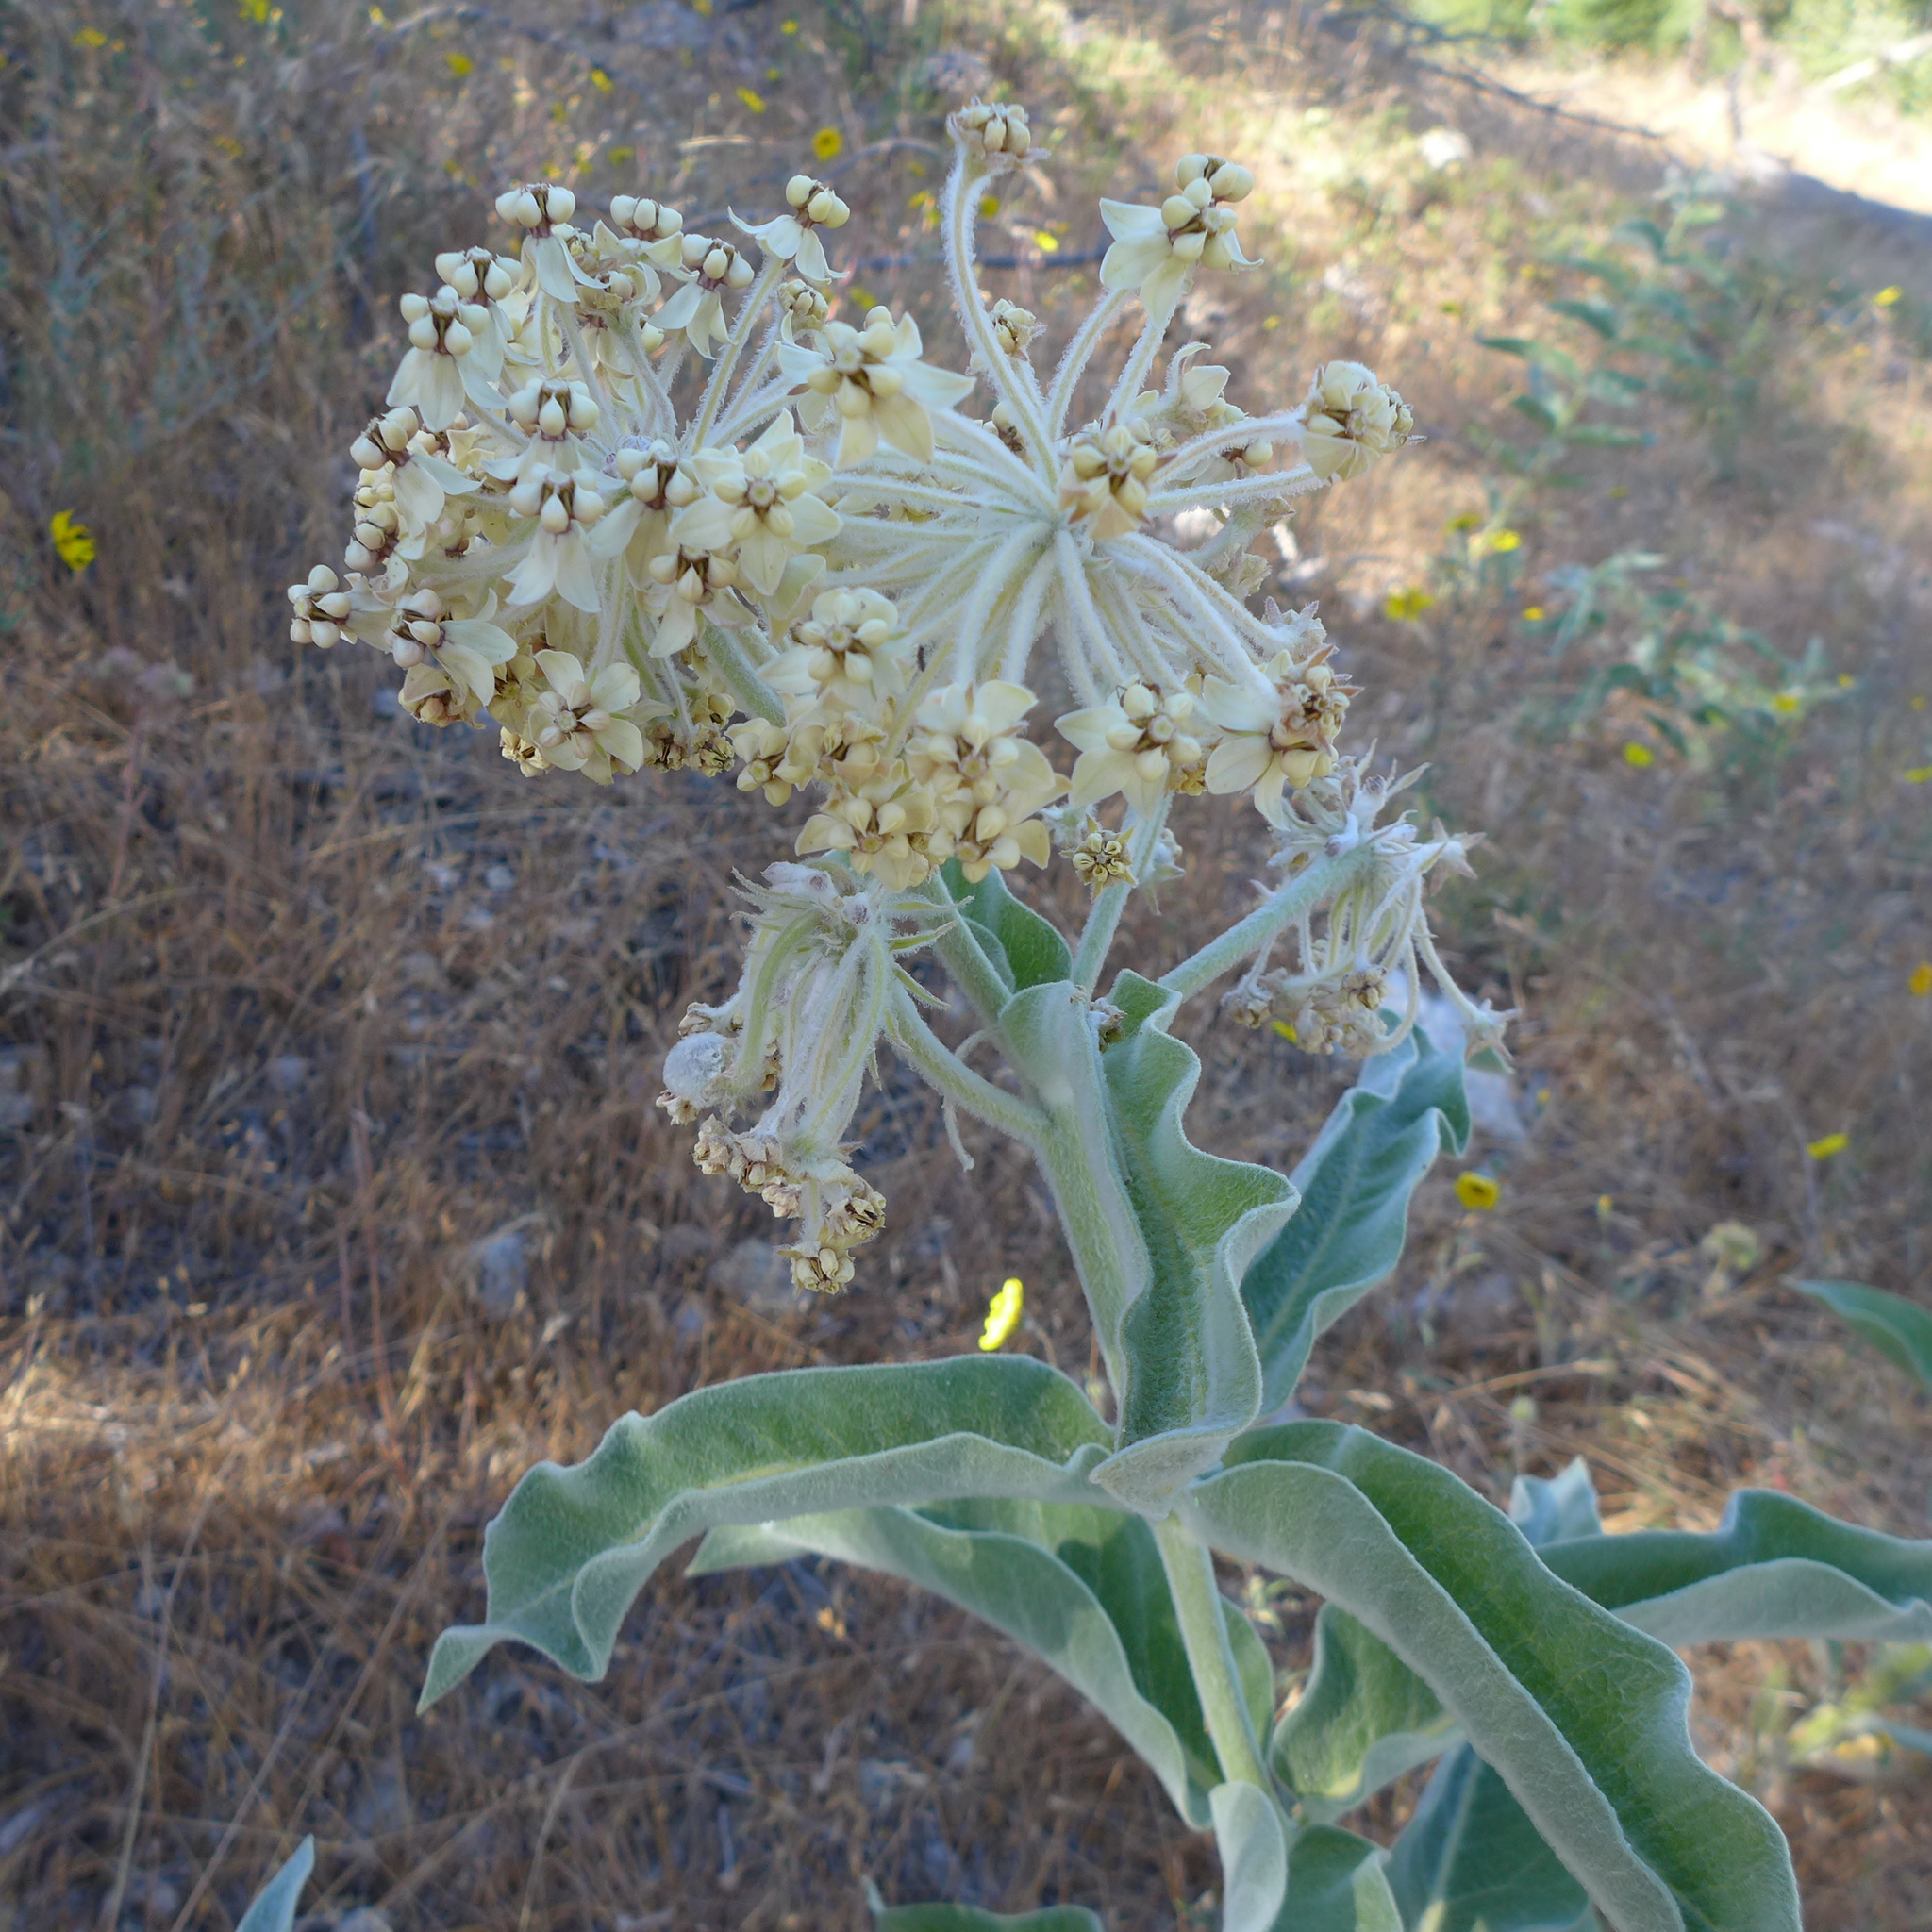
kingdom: Plantae
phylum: Tracheophyta
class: Magnoliopsida
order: Gentianales
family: Apocynaceae
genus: Asclepias
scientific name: Asclepias eriocarpa
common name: Indian milkweed
